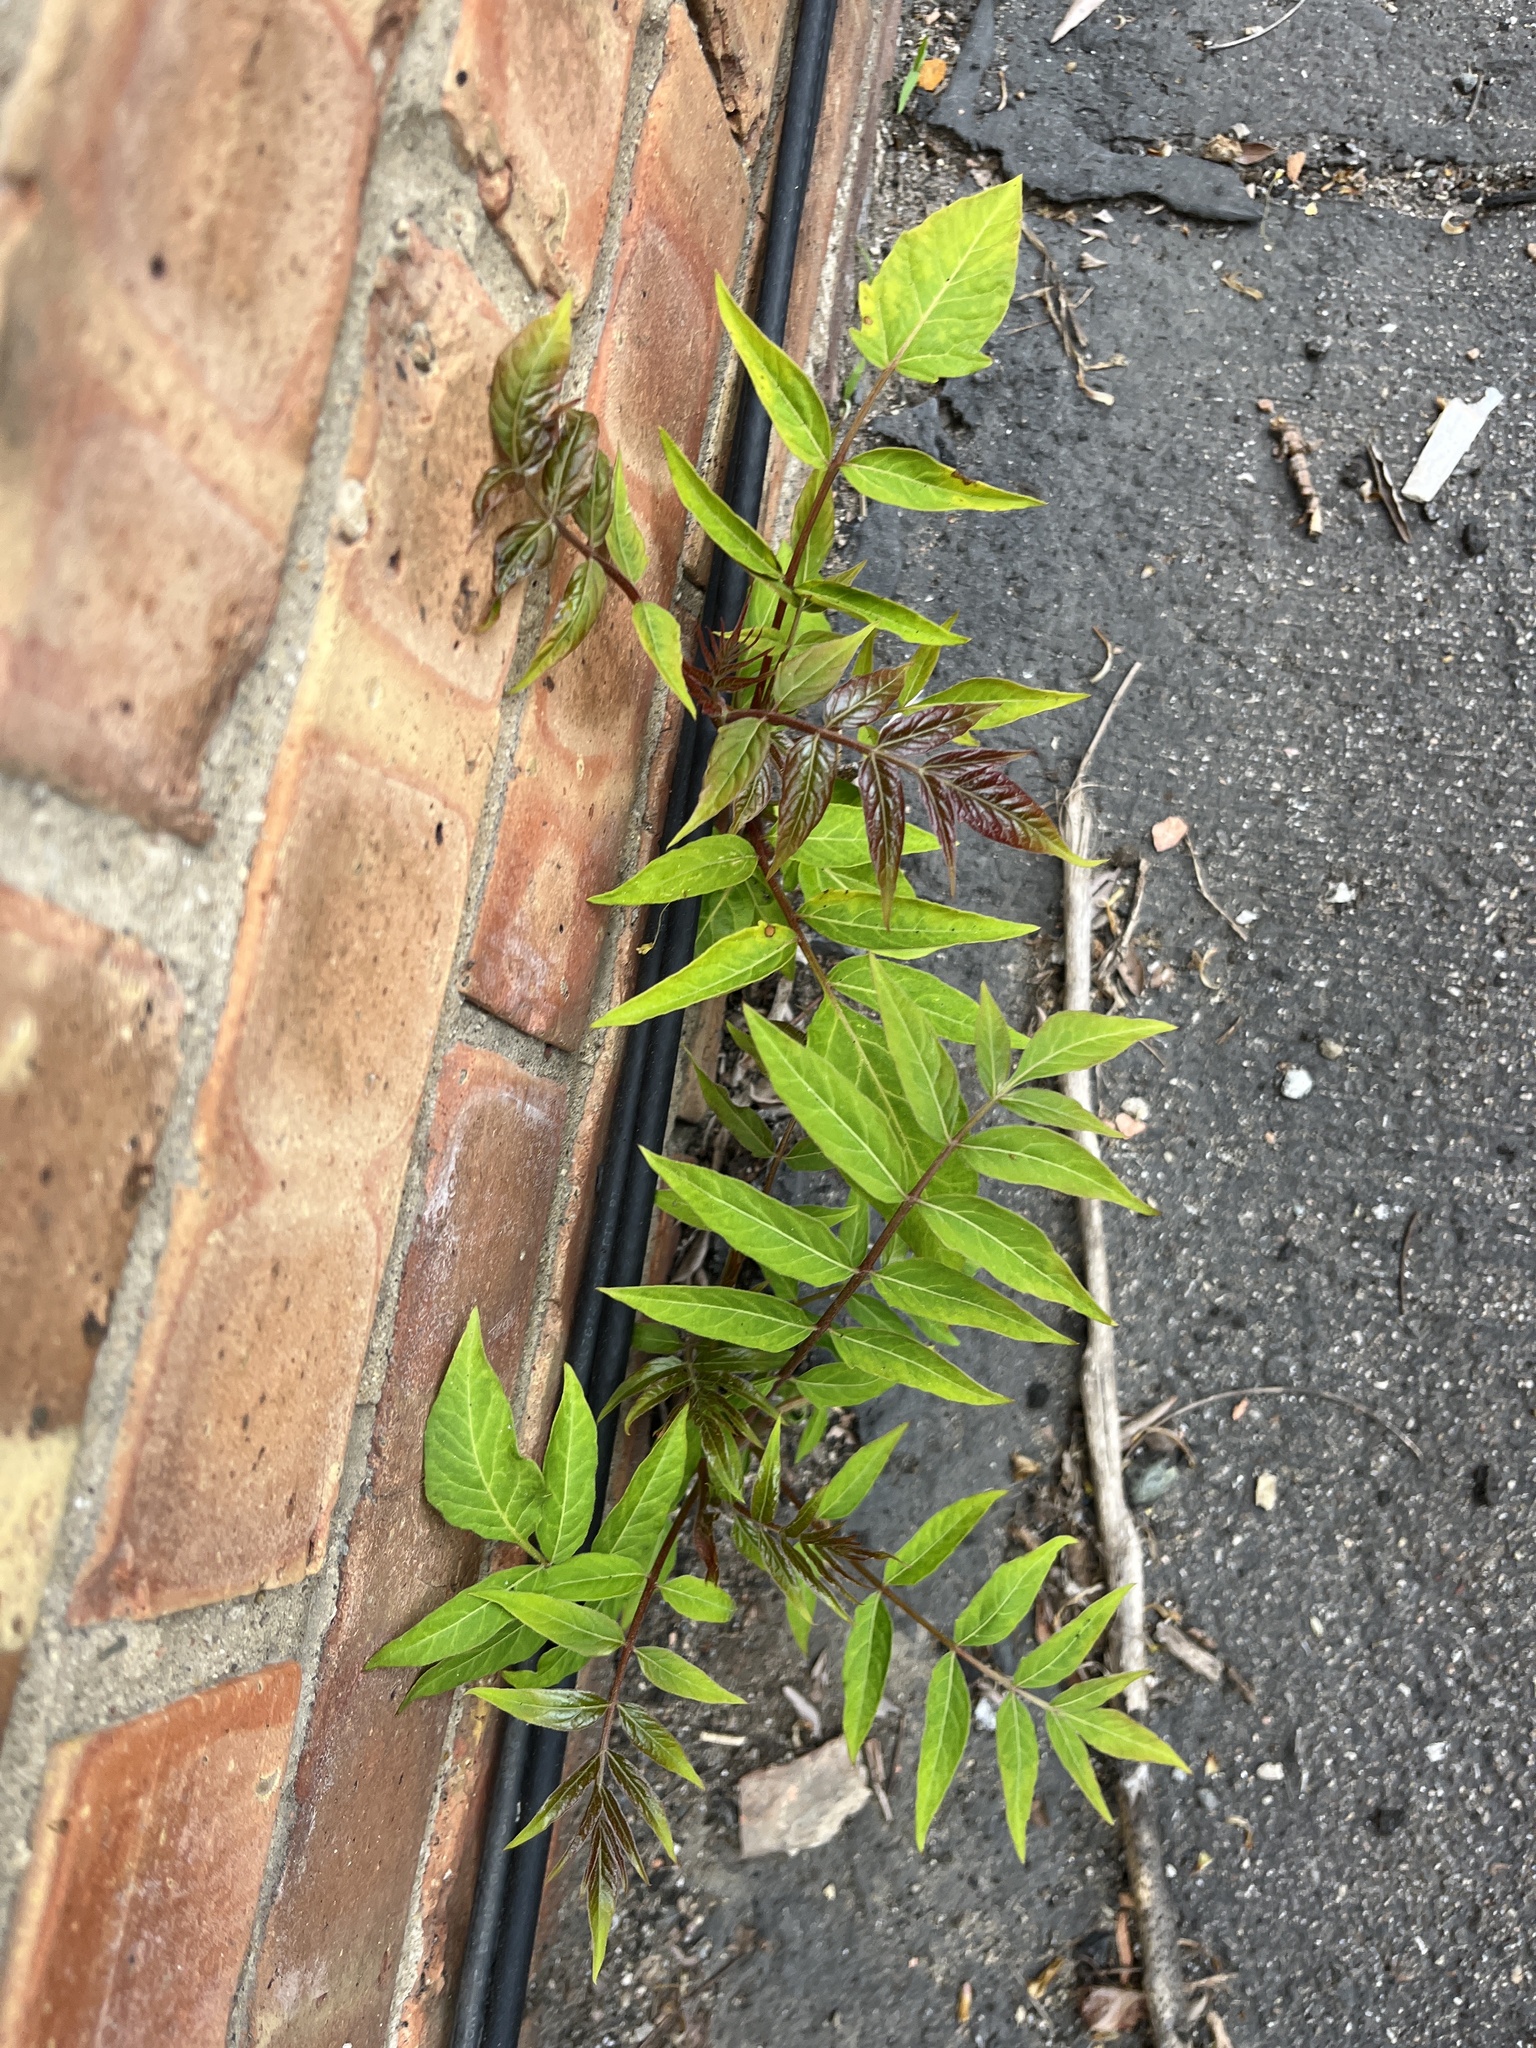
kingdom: Plantae
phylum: Tracheophyta
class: Magnoliopsida
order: Sapindales
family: Simaroubaceae
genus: Ailanthus
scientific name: Ailanthus altissima
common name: Tree-of-heaven
